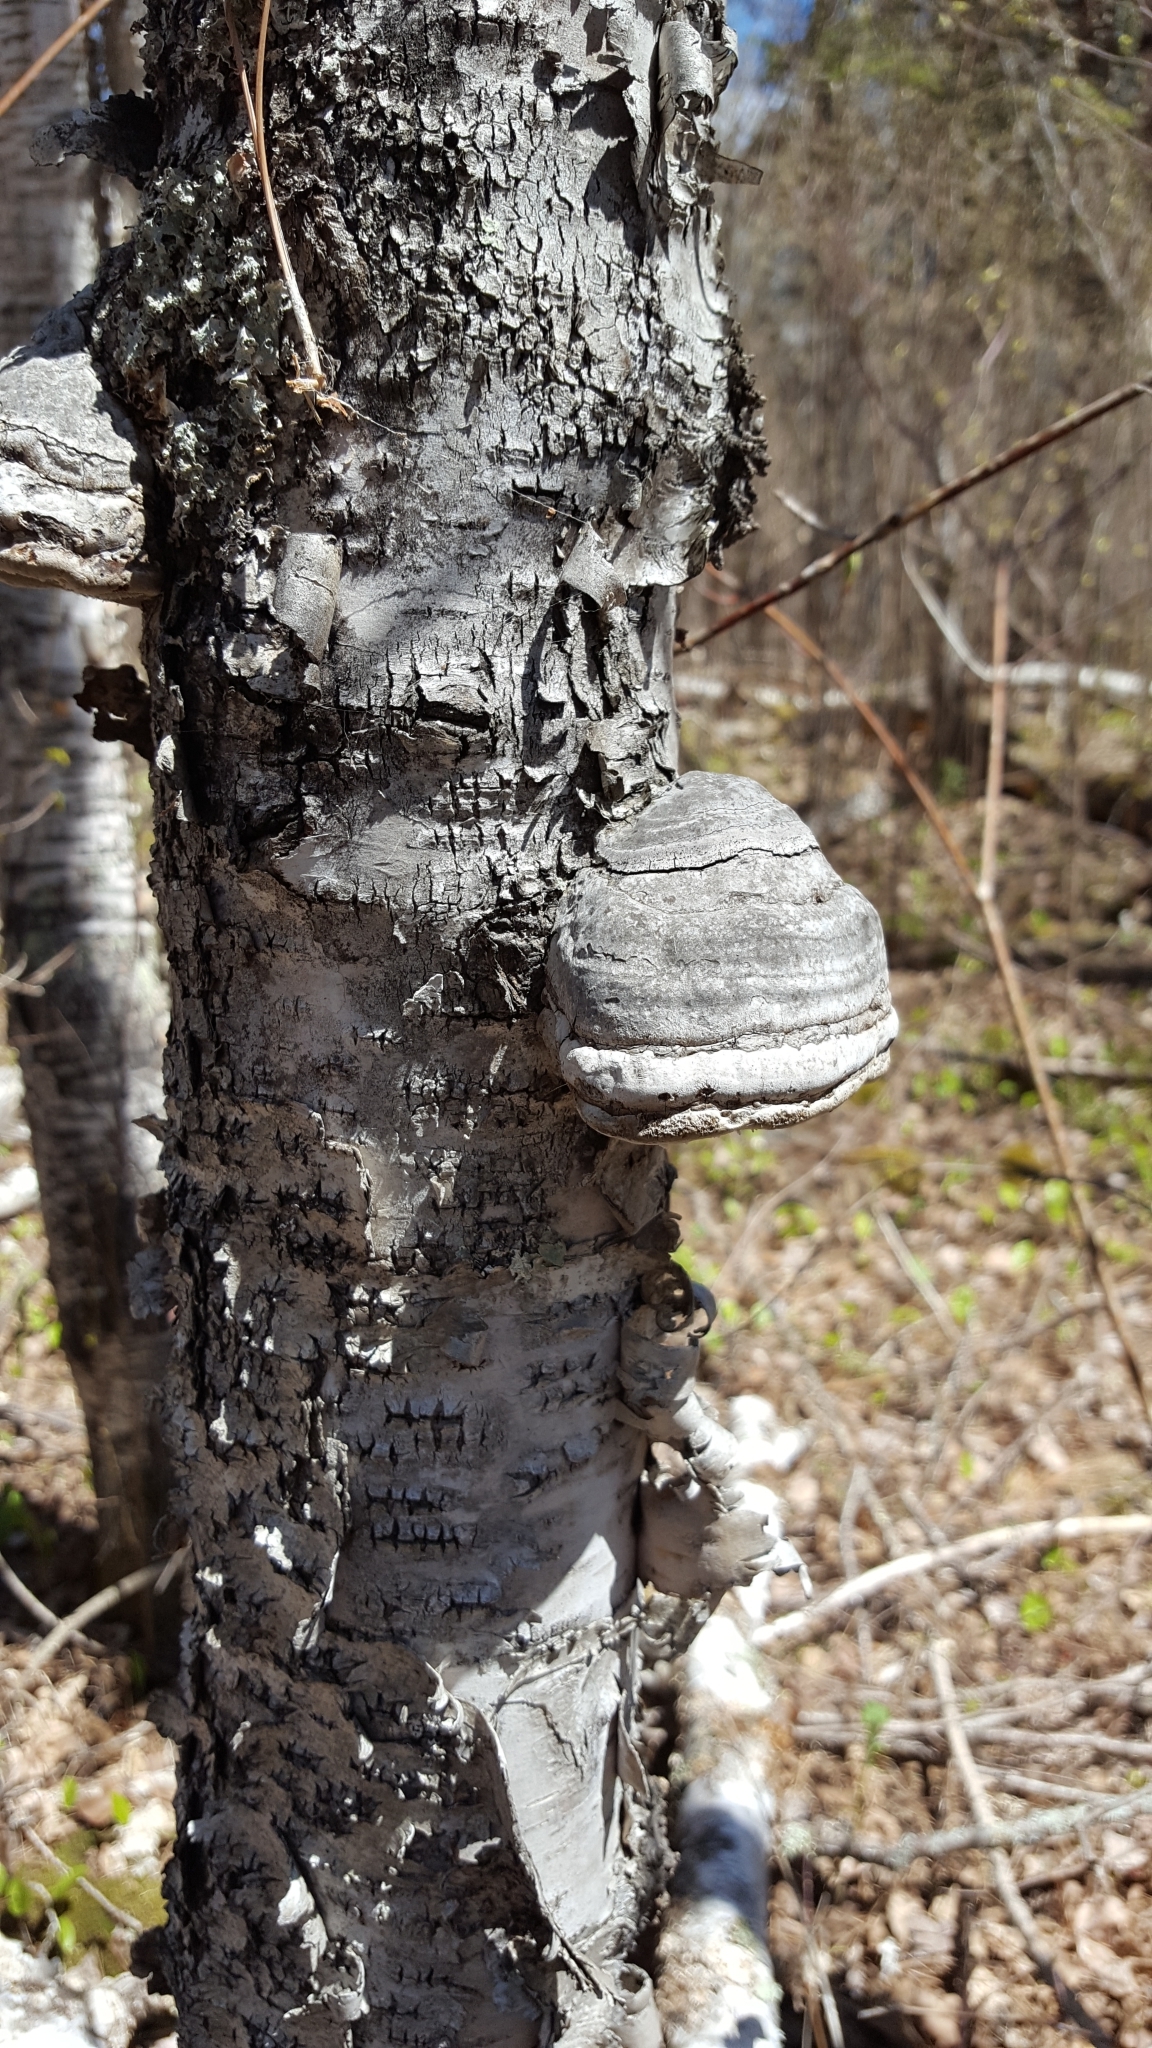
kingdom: Fungi
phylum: Basidiomycota
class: Agaricomycetes
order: Polyporales
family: Polyporaceae
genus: Fomes
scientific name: Fomes fomentarius
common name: Hoof fungus
